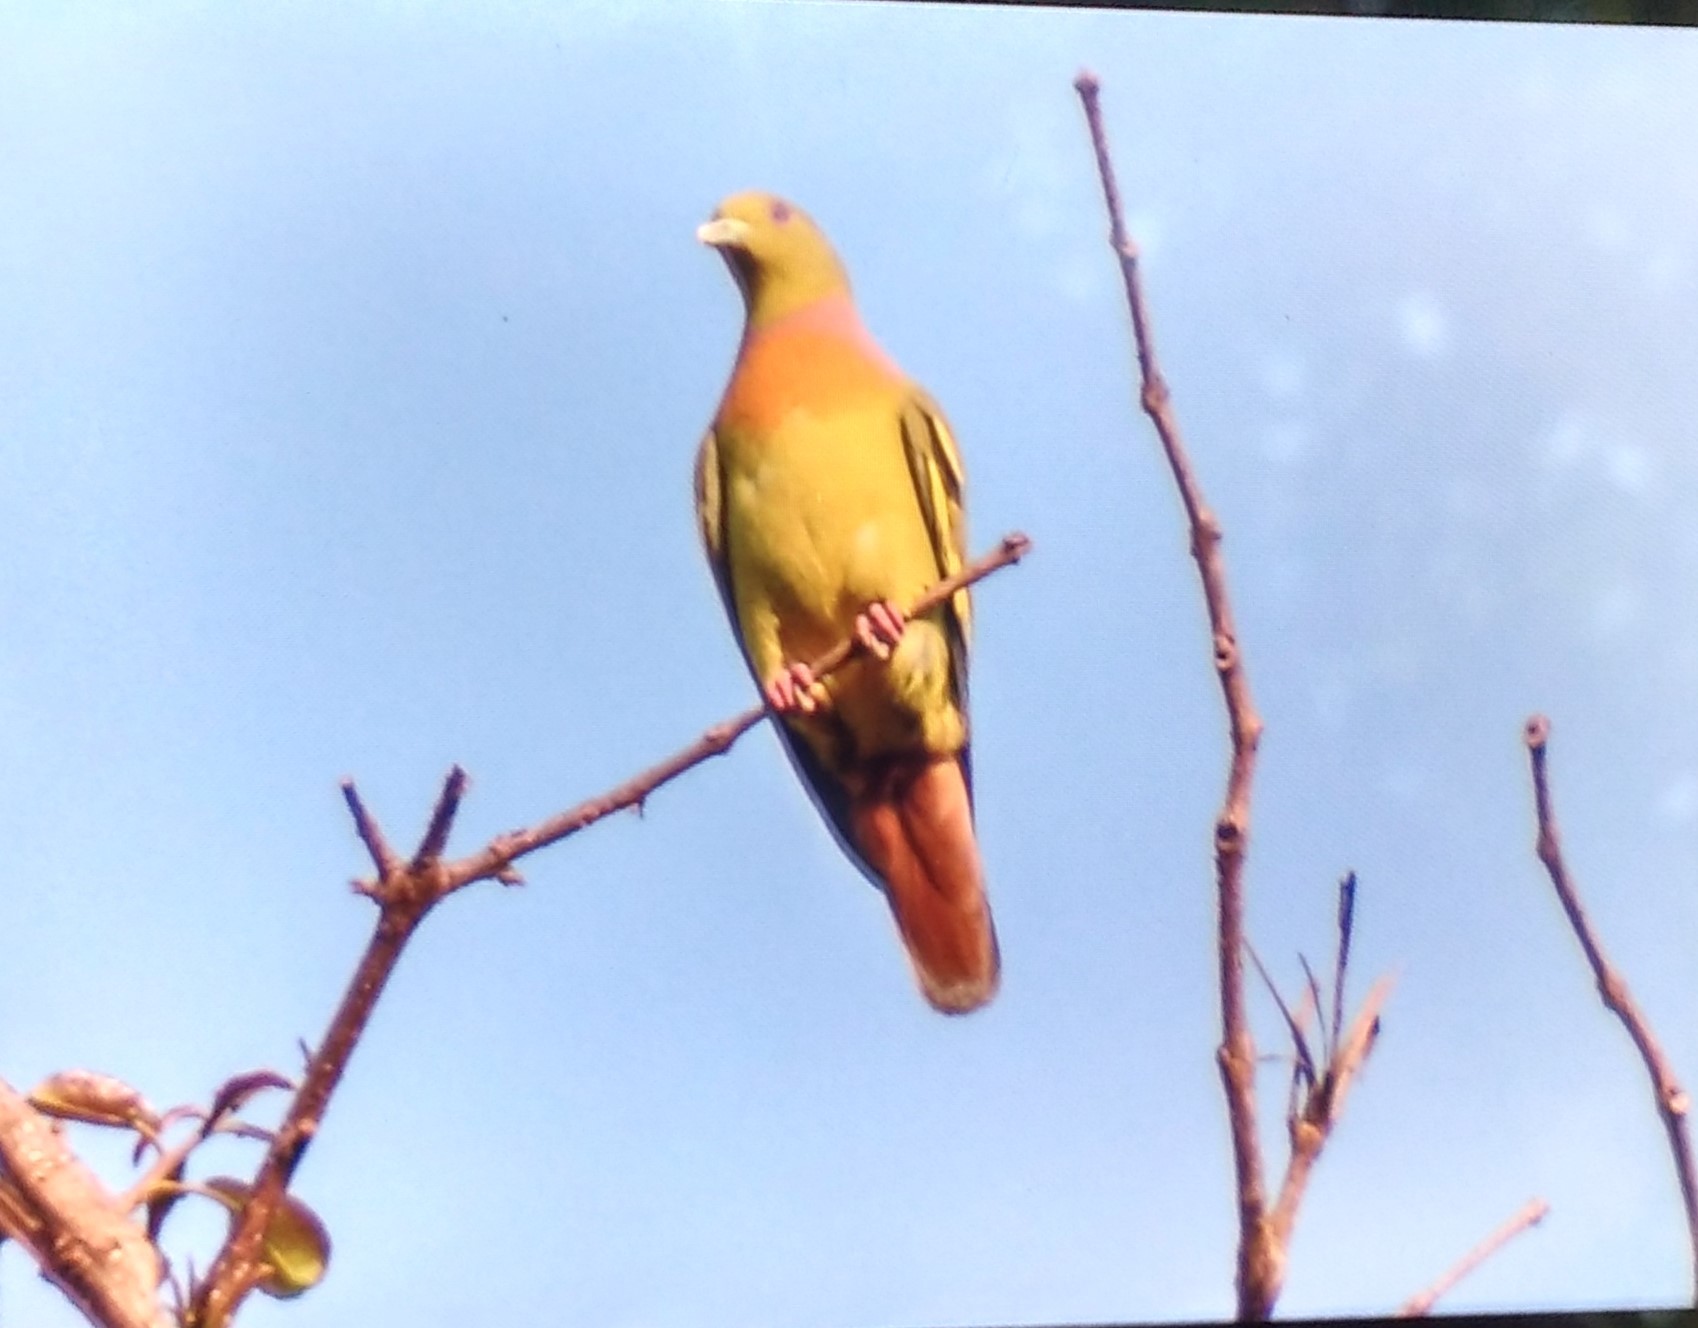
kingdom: Animalia
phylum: Chordata
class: Aves
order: Columbiformes
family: Columbidae
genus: Treron
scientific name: Treron bicinctus
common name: Orange-breasted green pigeon
